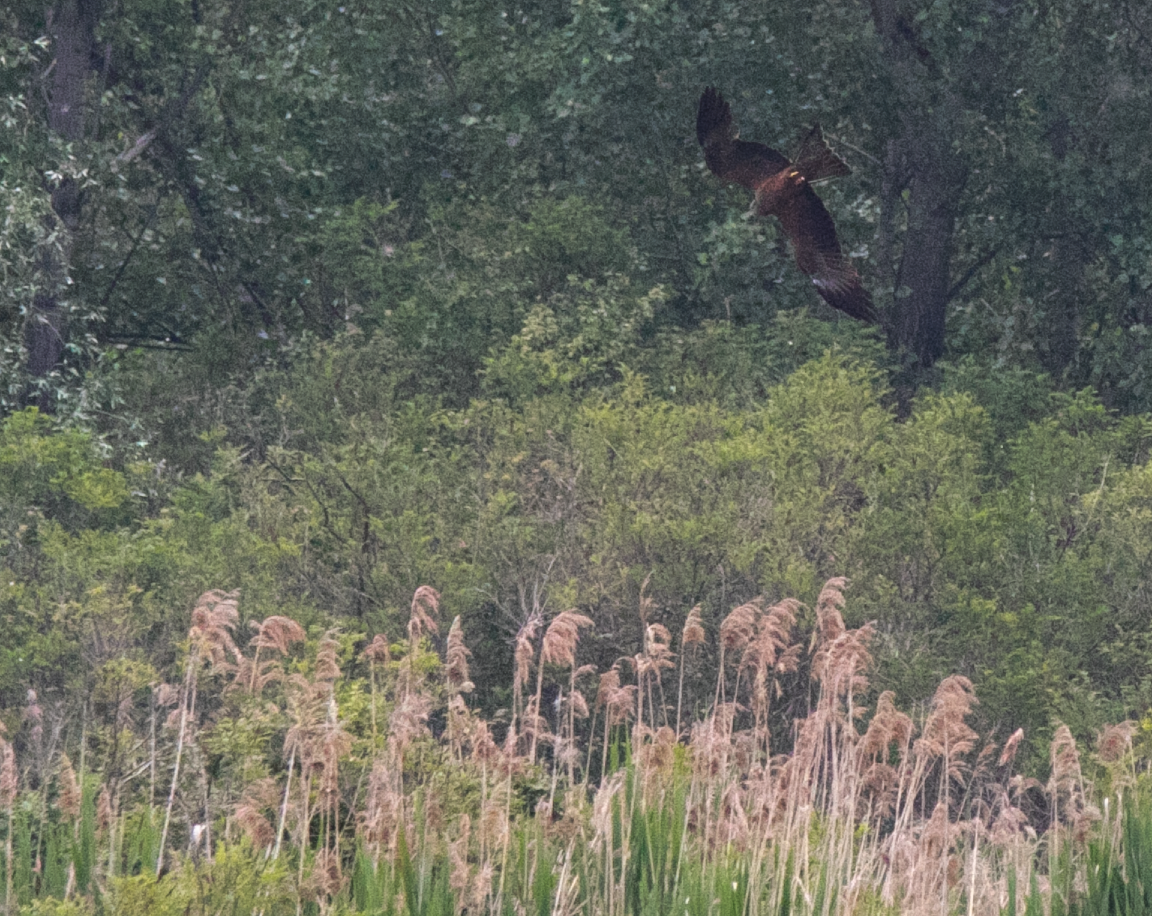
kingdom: Animalia
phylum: Chordata
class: Aves
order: Accipitriformes
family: Accipitridae
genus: Milvus
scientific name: Milvus migrans
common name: Black kite
